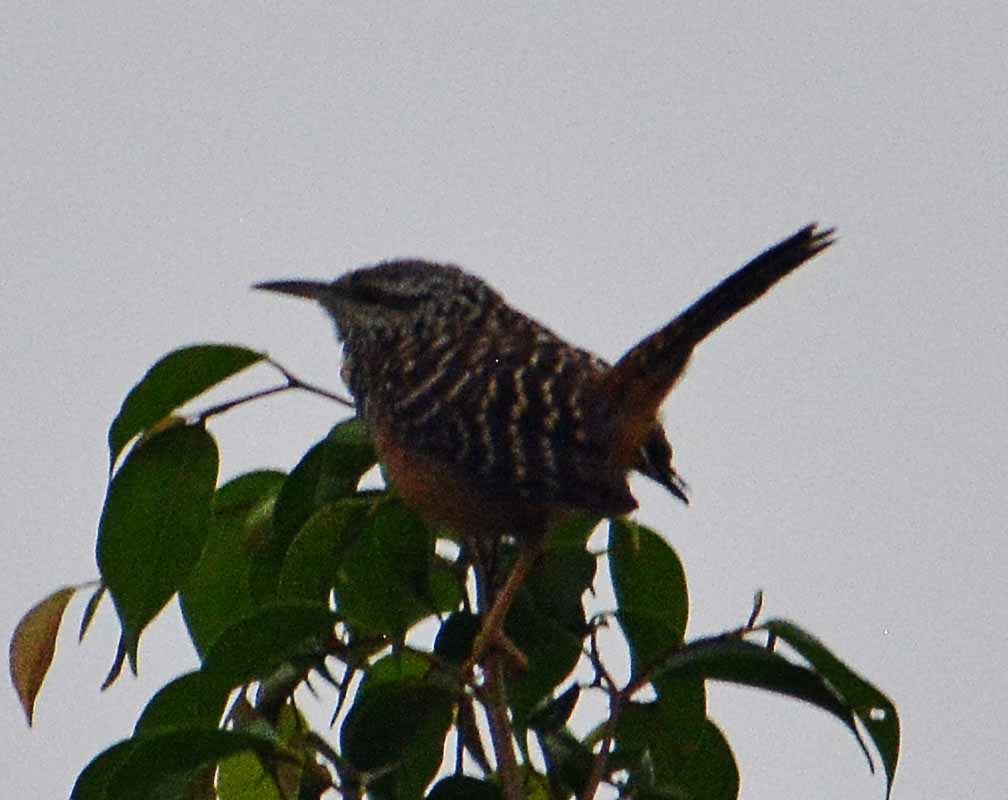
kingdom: Animalia
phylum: Chordata
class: Aves
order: Passeriformes
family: Troglodytidae
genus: Campylorhynchus
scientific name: Campylorhynchus zonatus
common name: Band-backed wren
